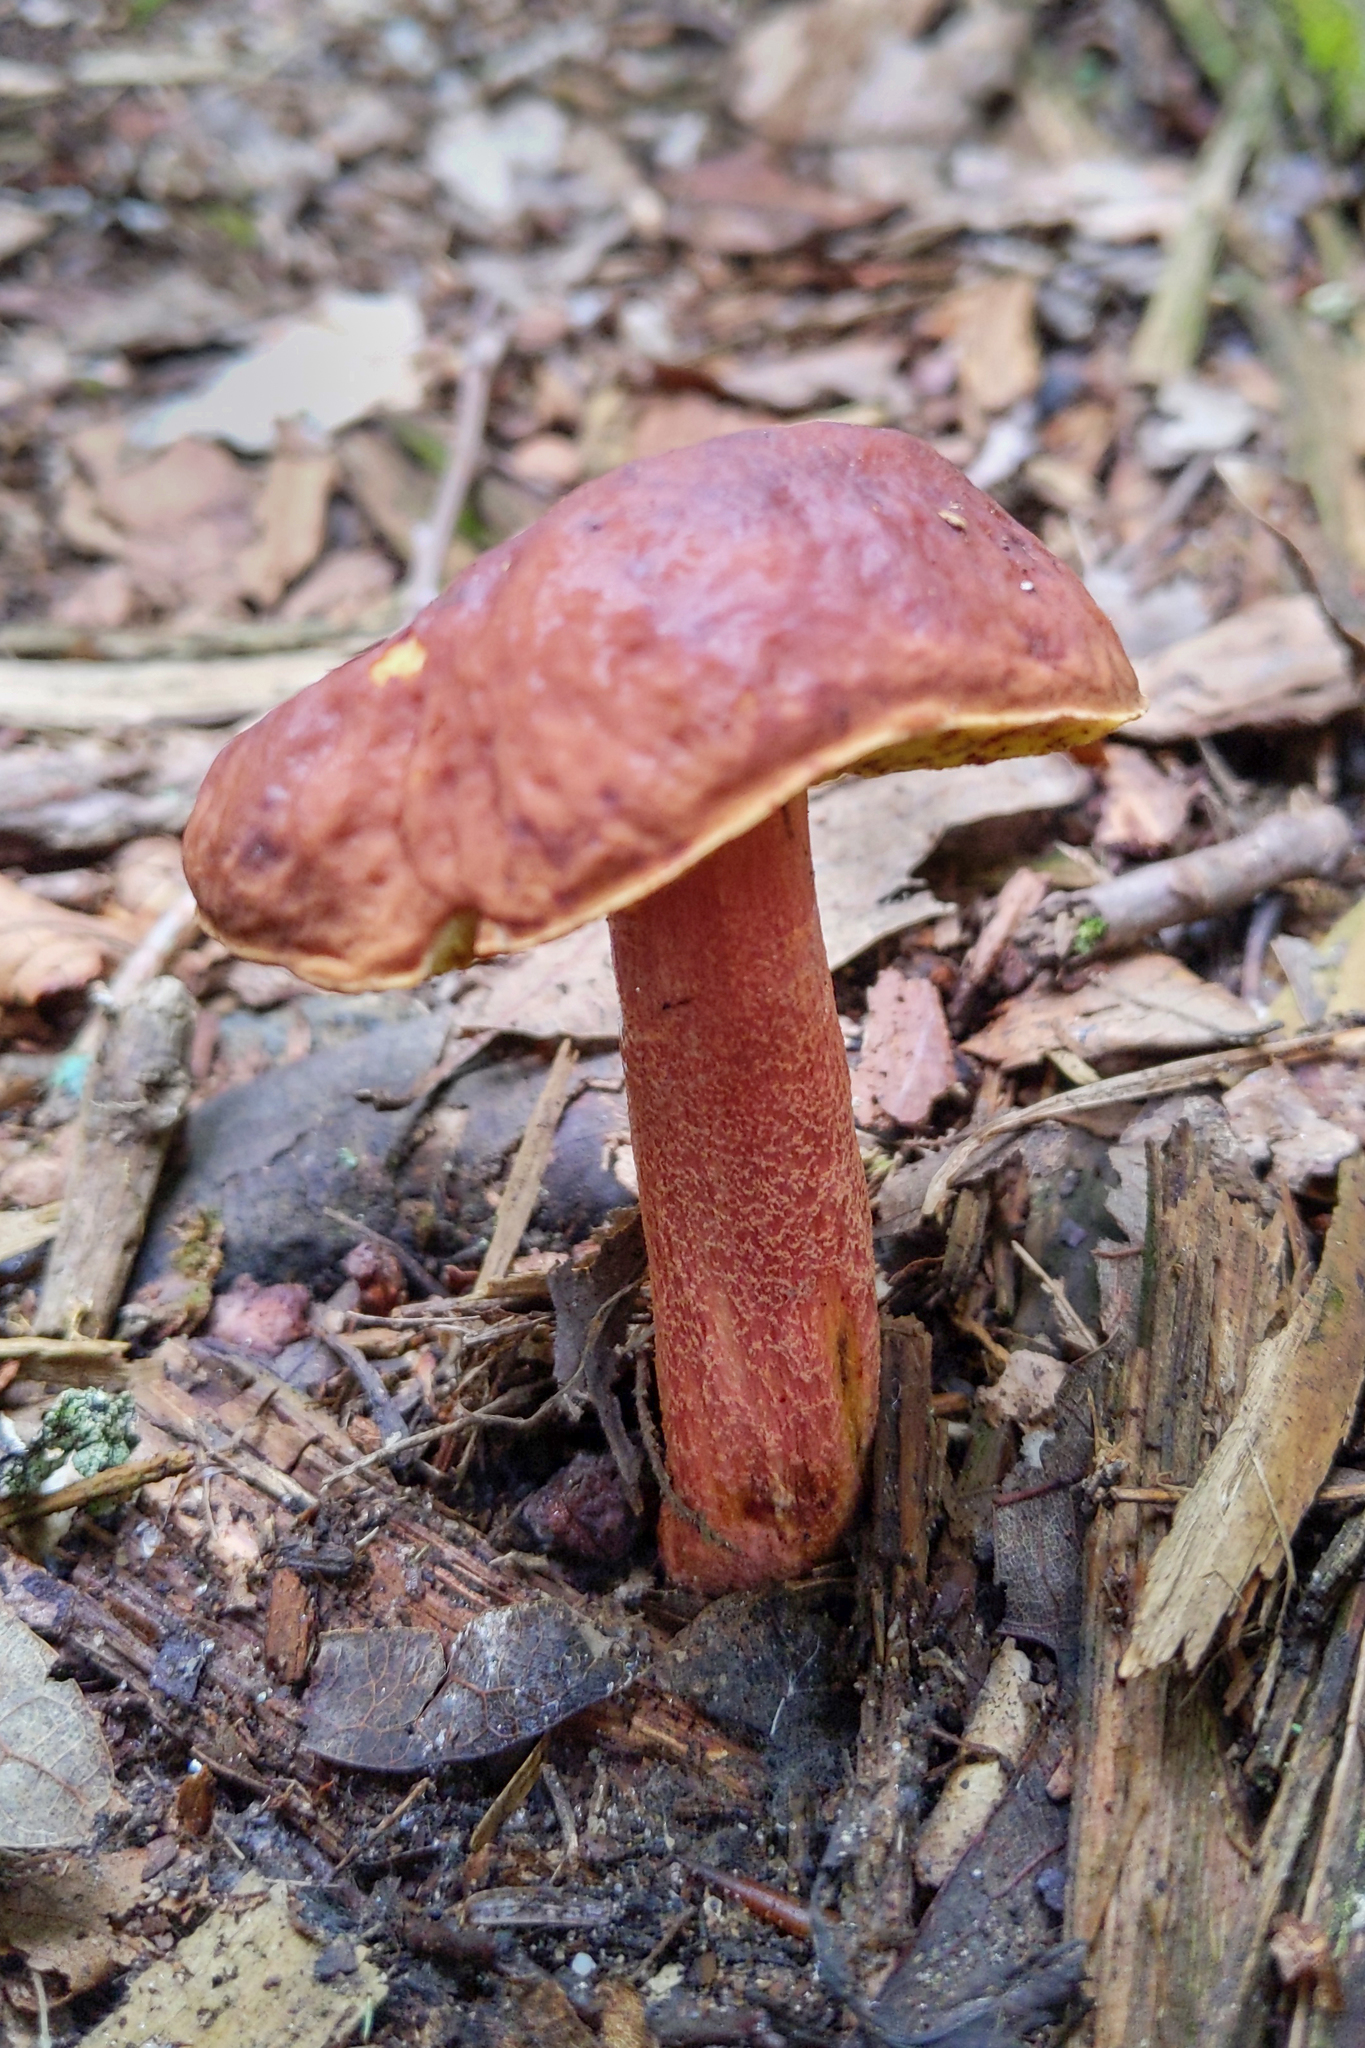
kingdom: Fungi
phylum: Basidiomycota
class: Agaricomycetes
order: Boletales
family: Boletaceae
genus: Hemileccinum
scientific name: Hemileccinum rubropunctum
